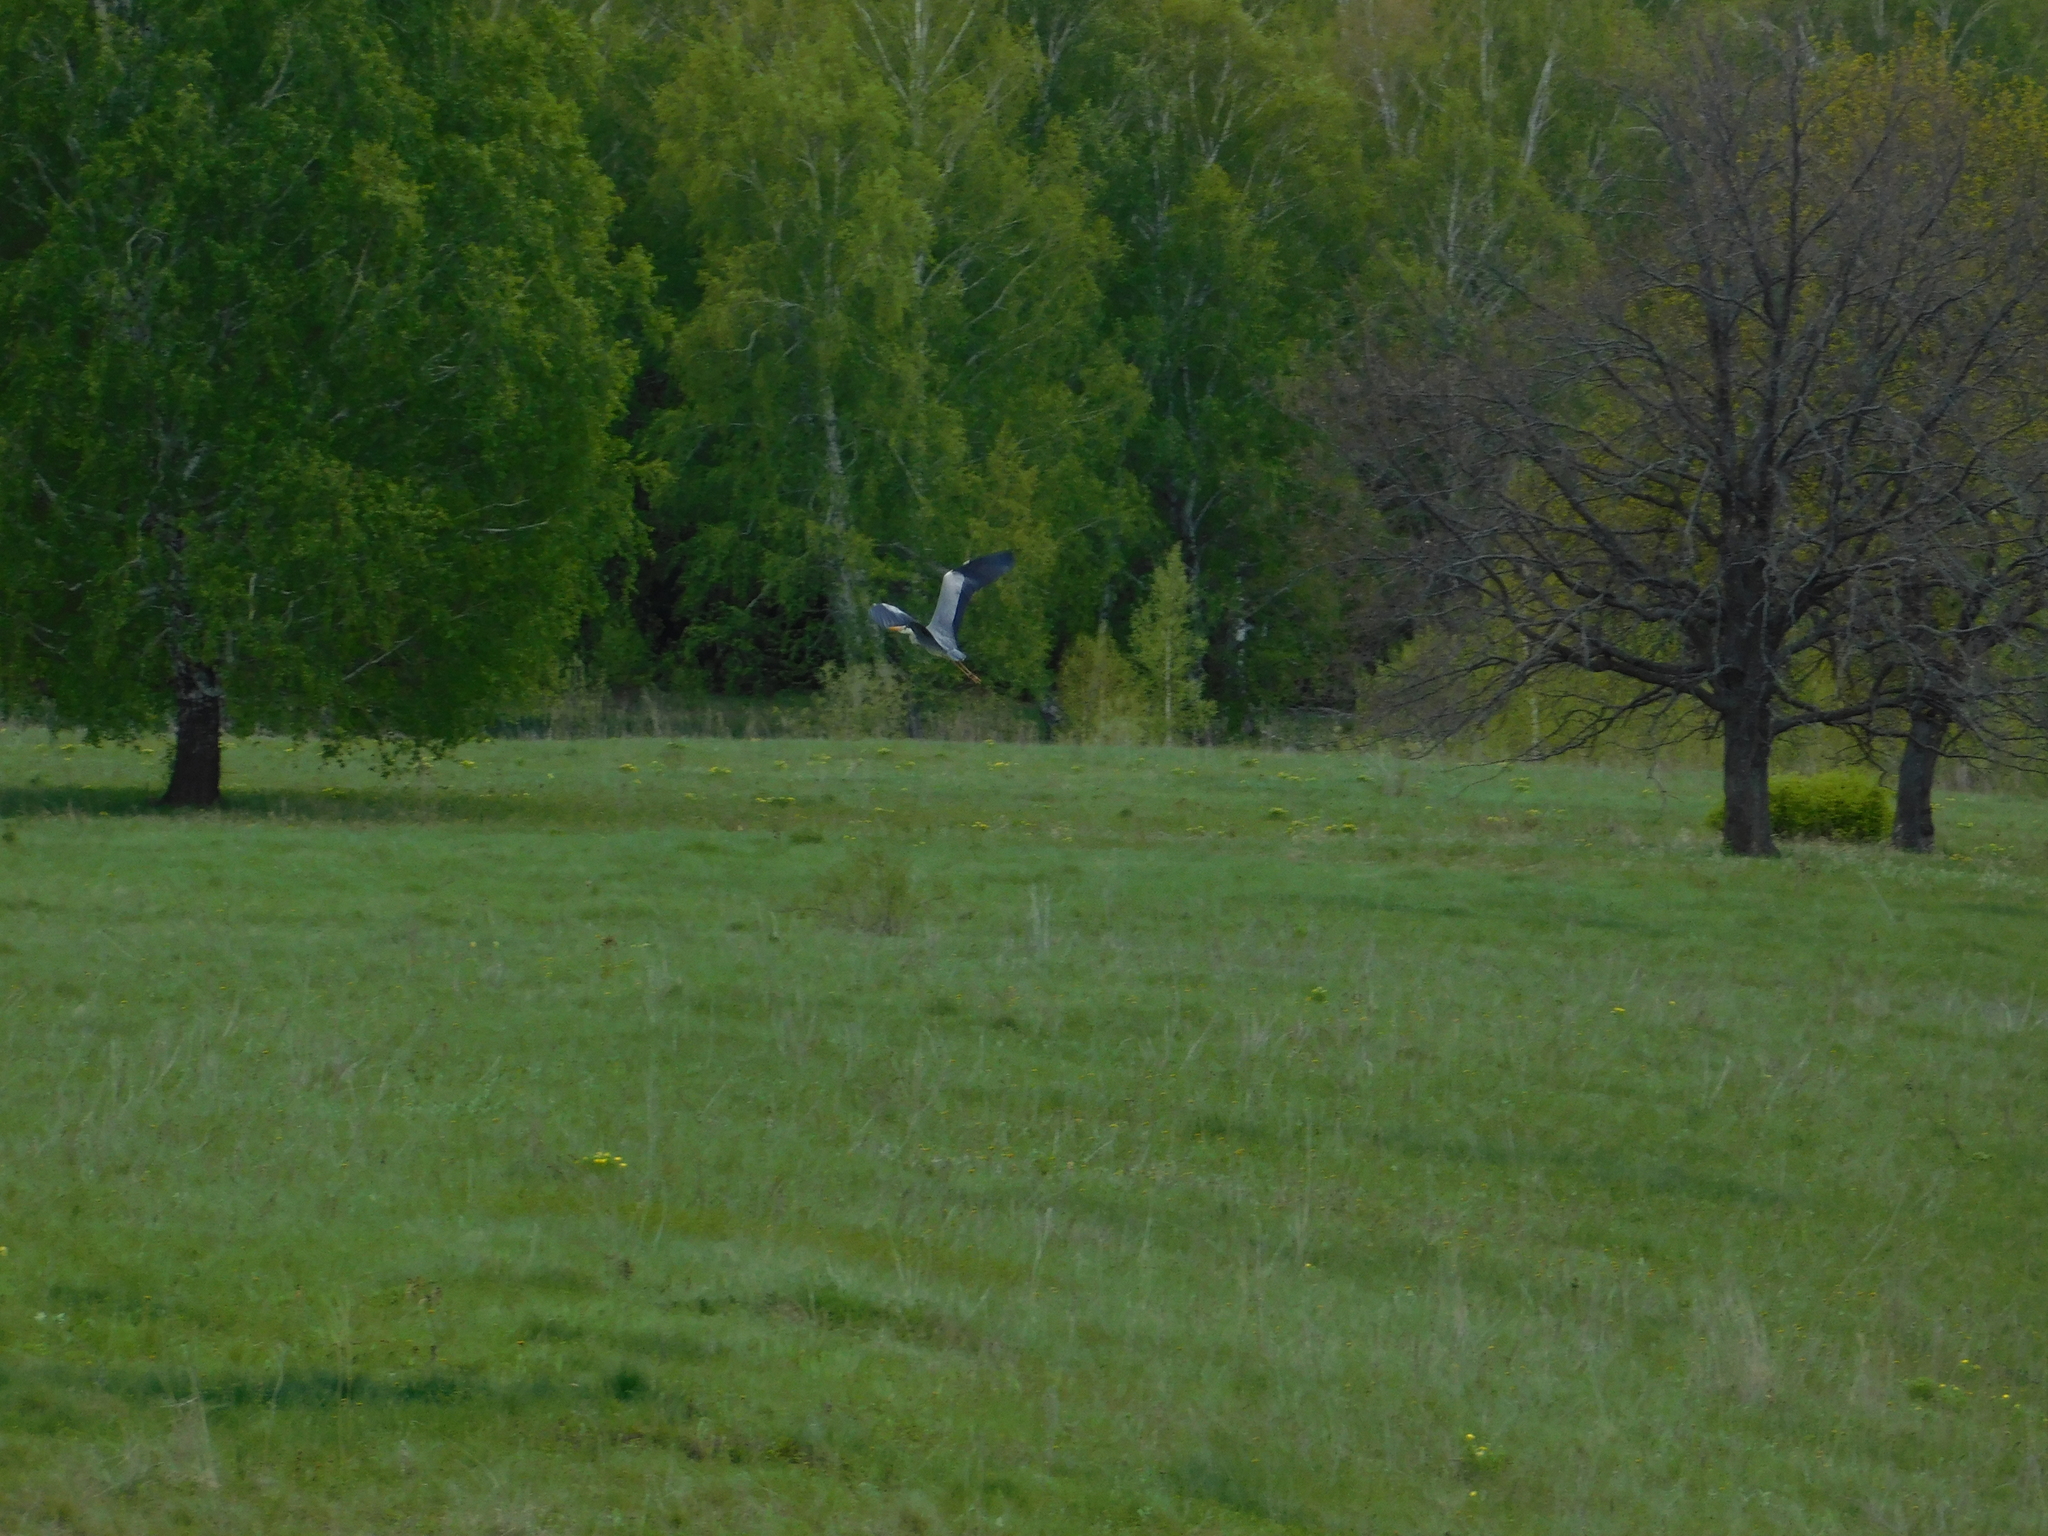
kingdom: Animalia
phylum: Chordata
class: Aves
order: Pelecaniformes
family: Ardeidae
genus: Ardea
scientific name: Ardea cinerea
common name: Grey heron
